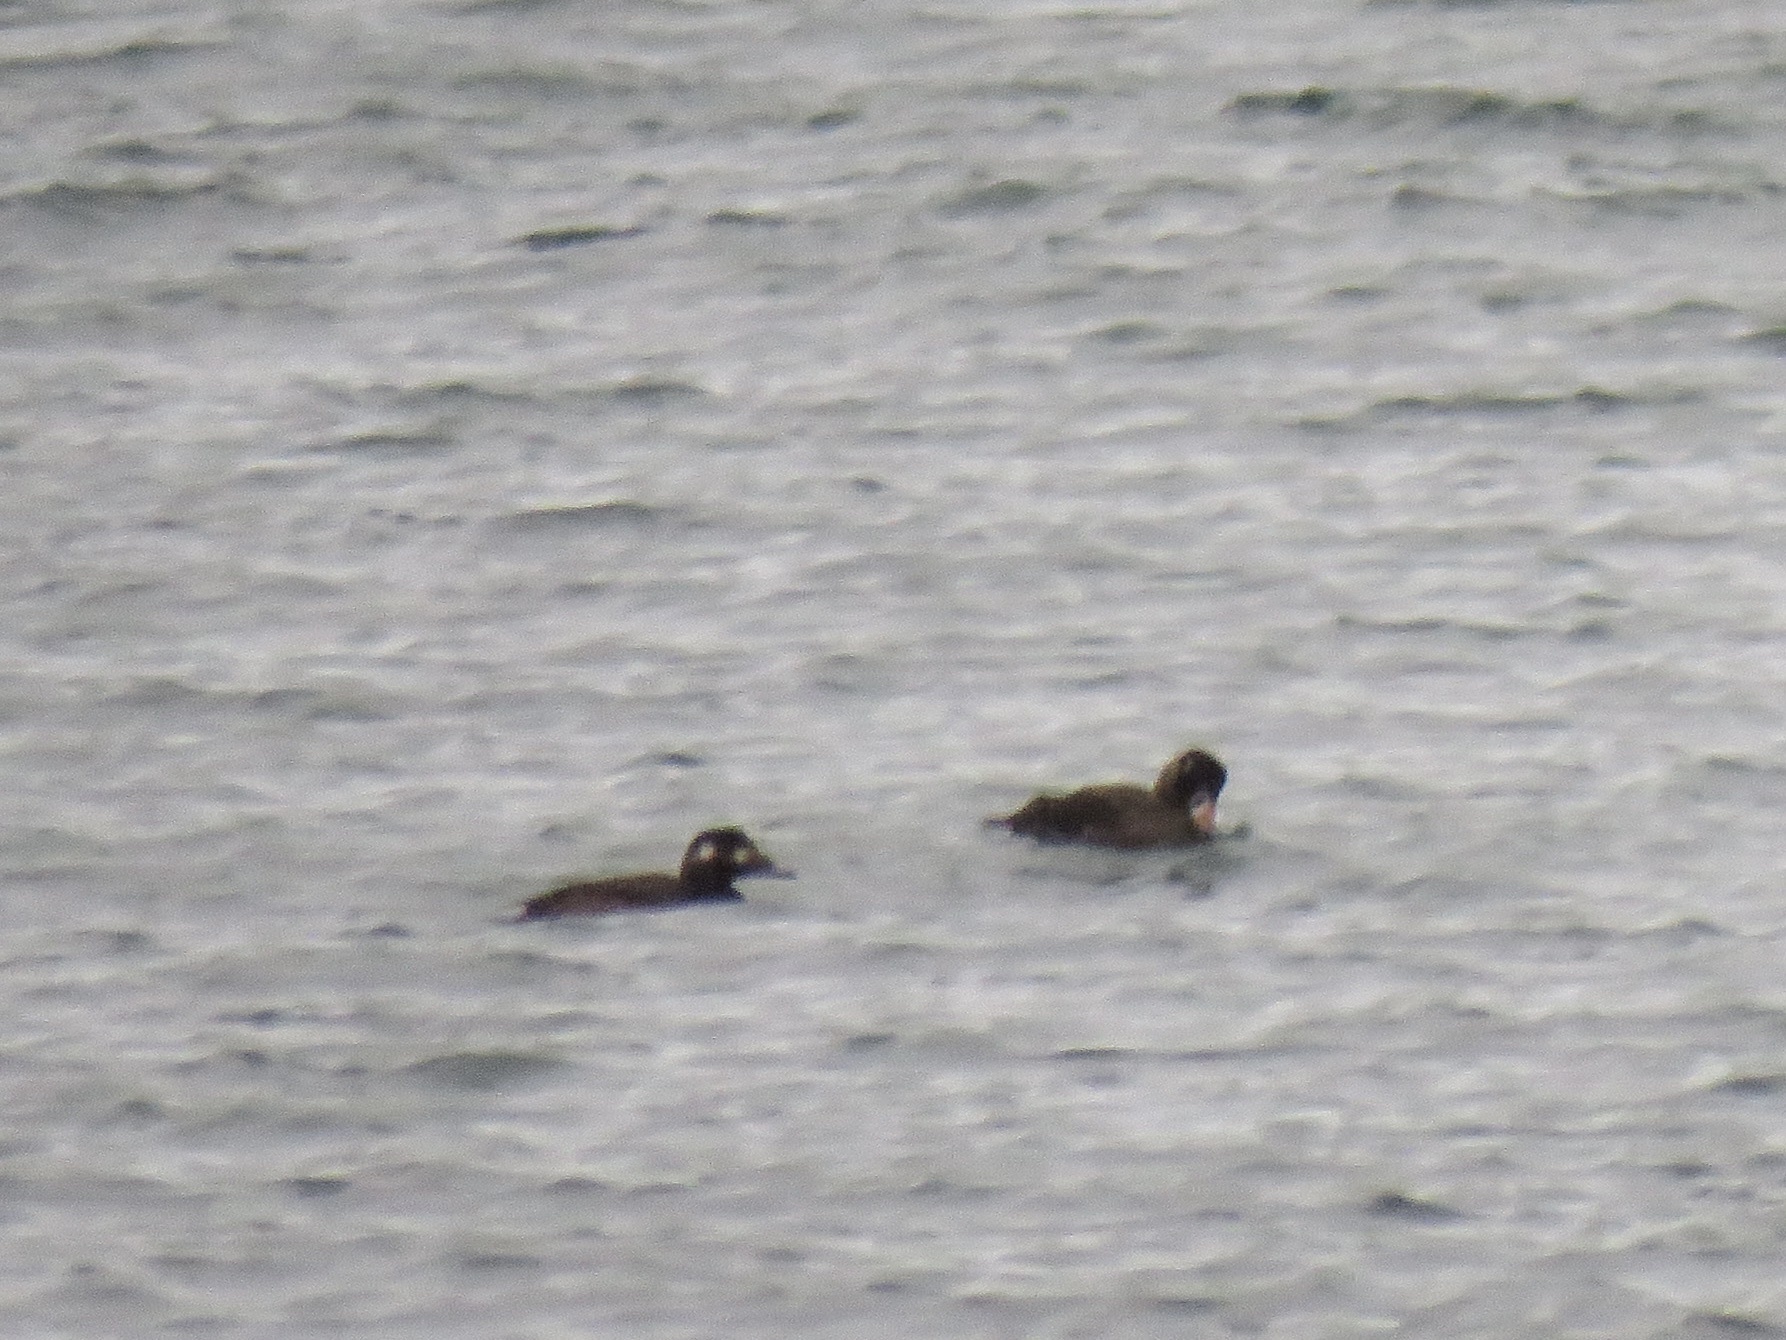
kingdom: Animalia
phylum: Chordata
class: Aves
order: Anseriformes
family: Anatidae
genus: Melanitta
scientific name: Melanitta perspicillata
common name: Surf scoter
